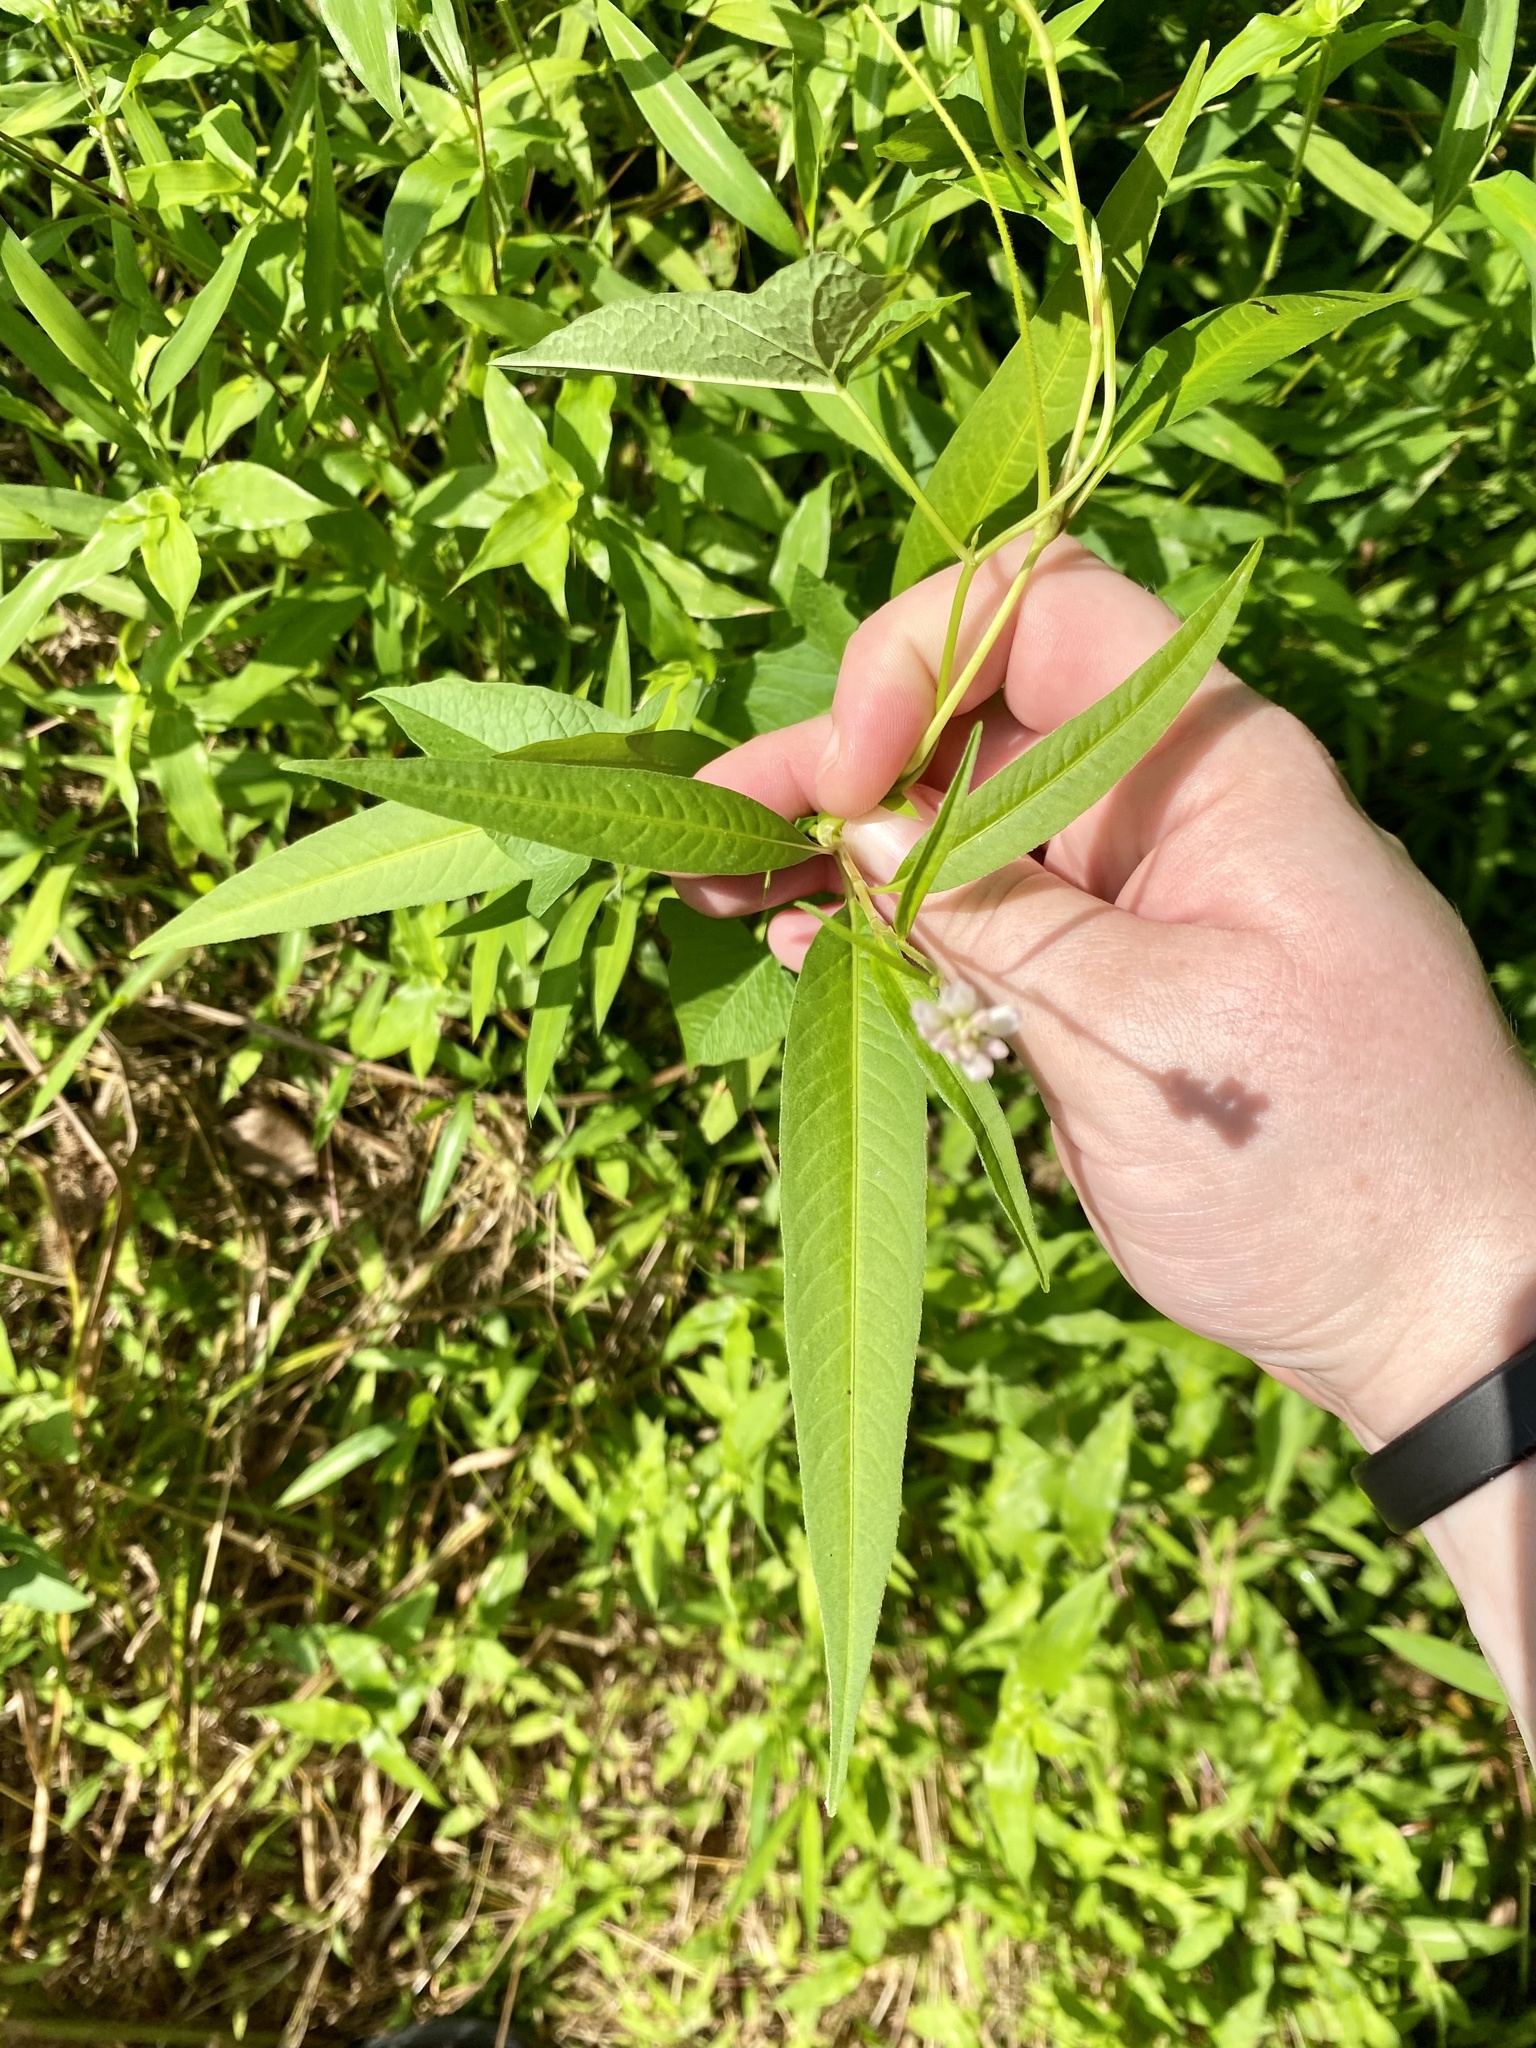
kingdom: Plantae
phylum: Tracheophyta
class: Magnoliopsida
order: Caryophyllales
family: Polygonaceae
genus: Persicaria
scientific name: Persicaria pensylvanica
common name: Pinkweed
